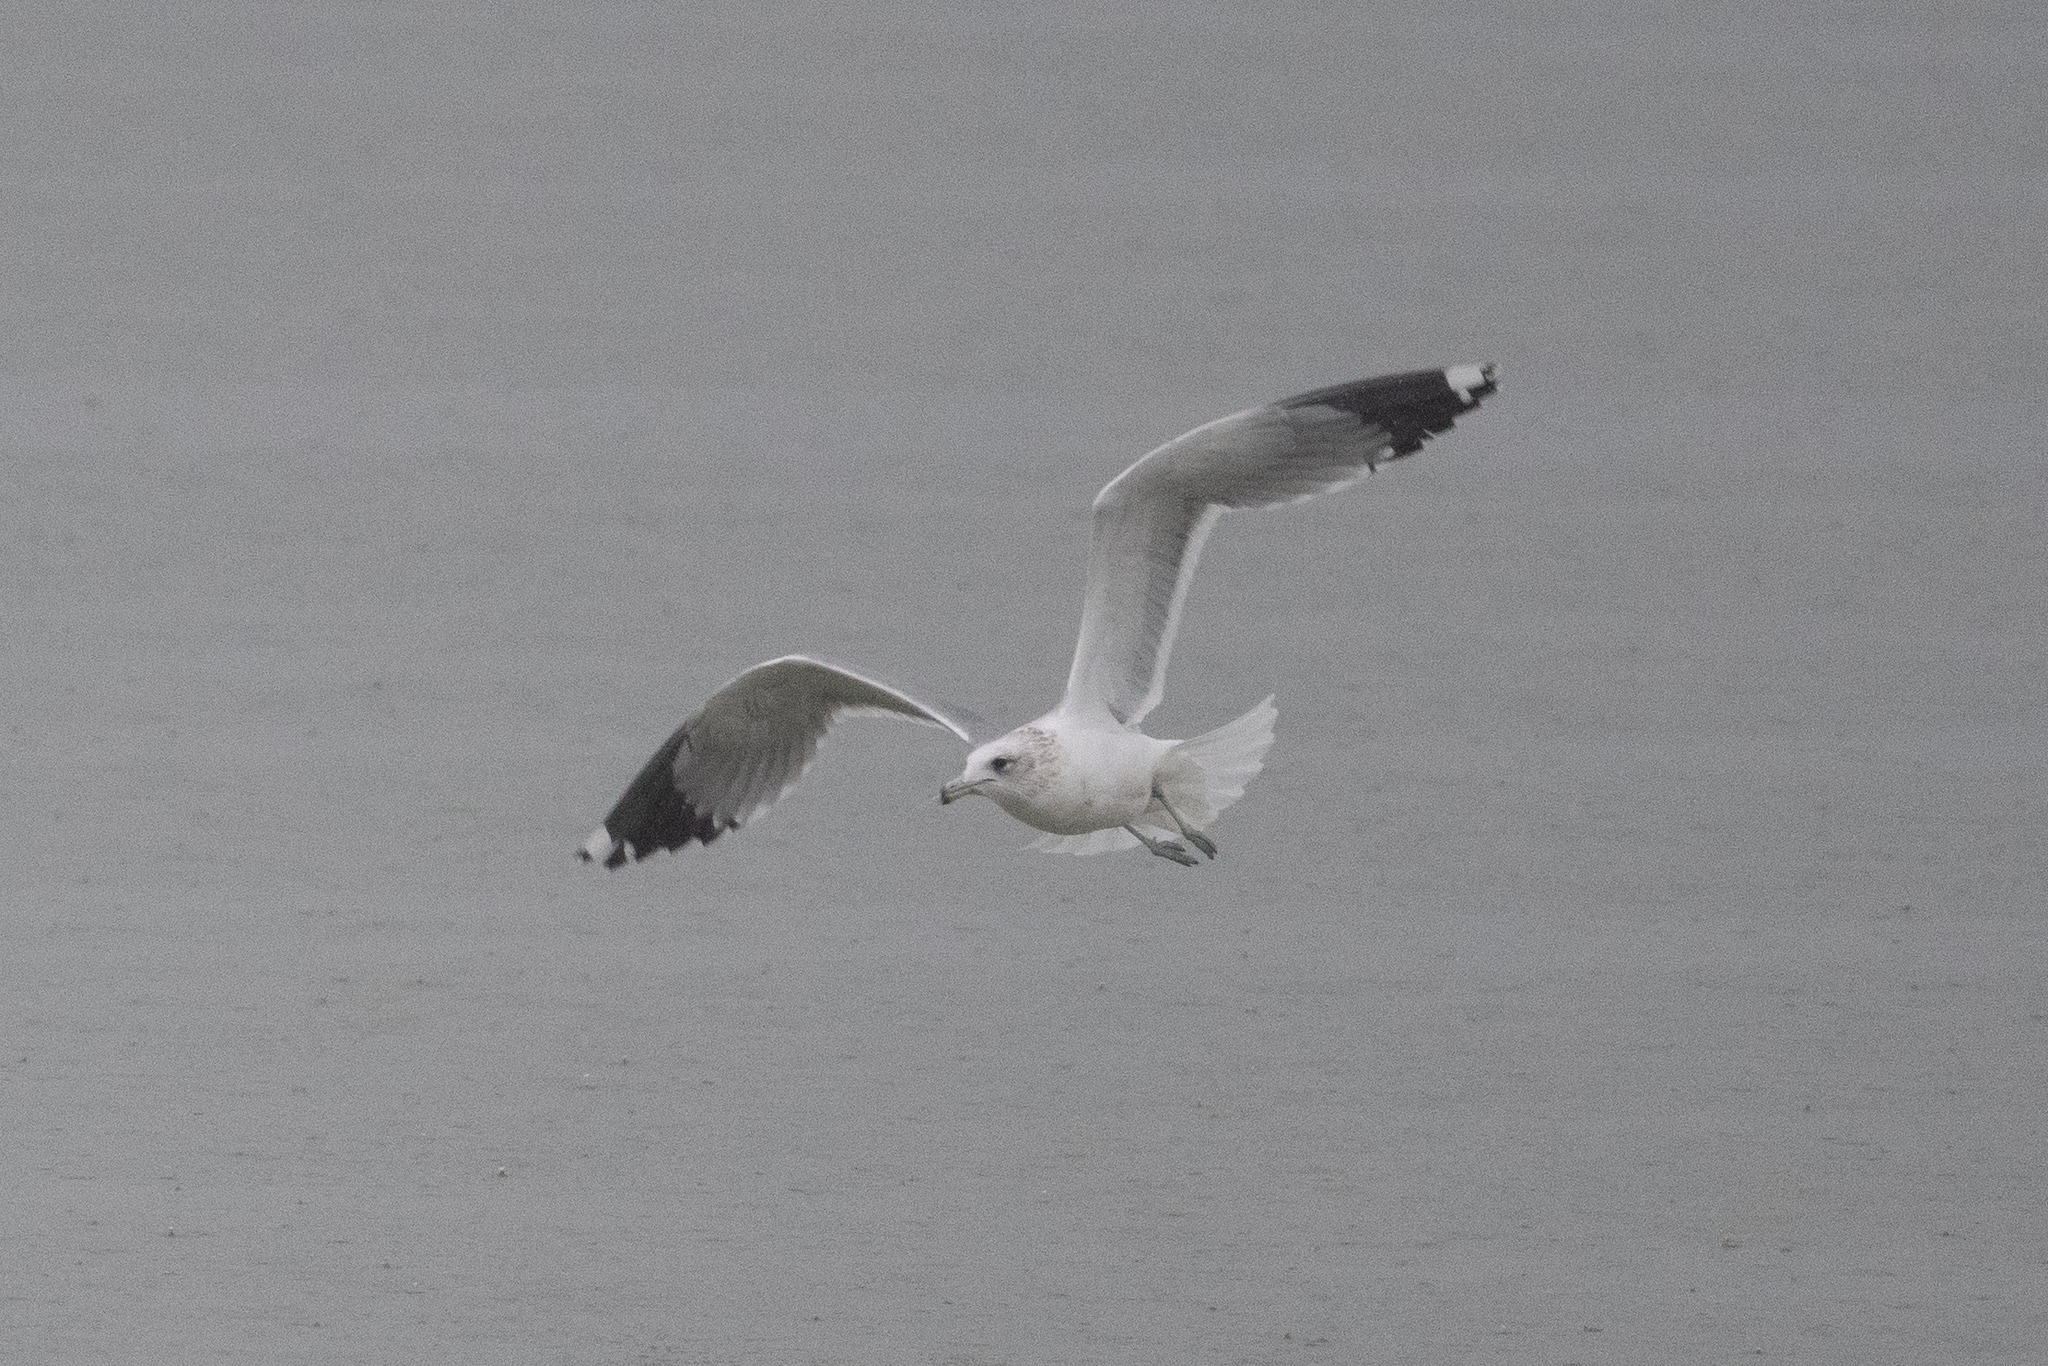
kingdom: Animalia
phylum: Chordata
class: Aves
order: Charadriiformes
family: Laridae
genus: Larus
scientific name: Larus californicus
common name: California gull
